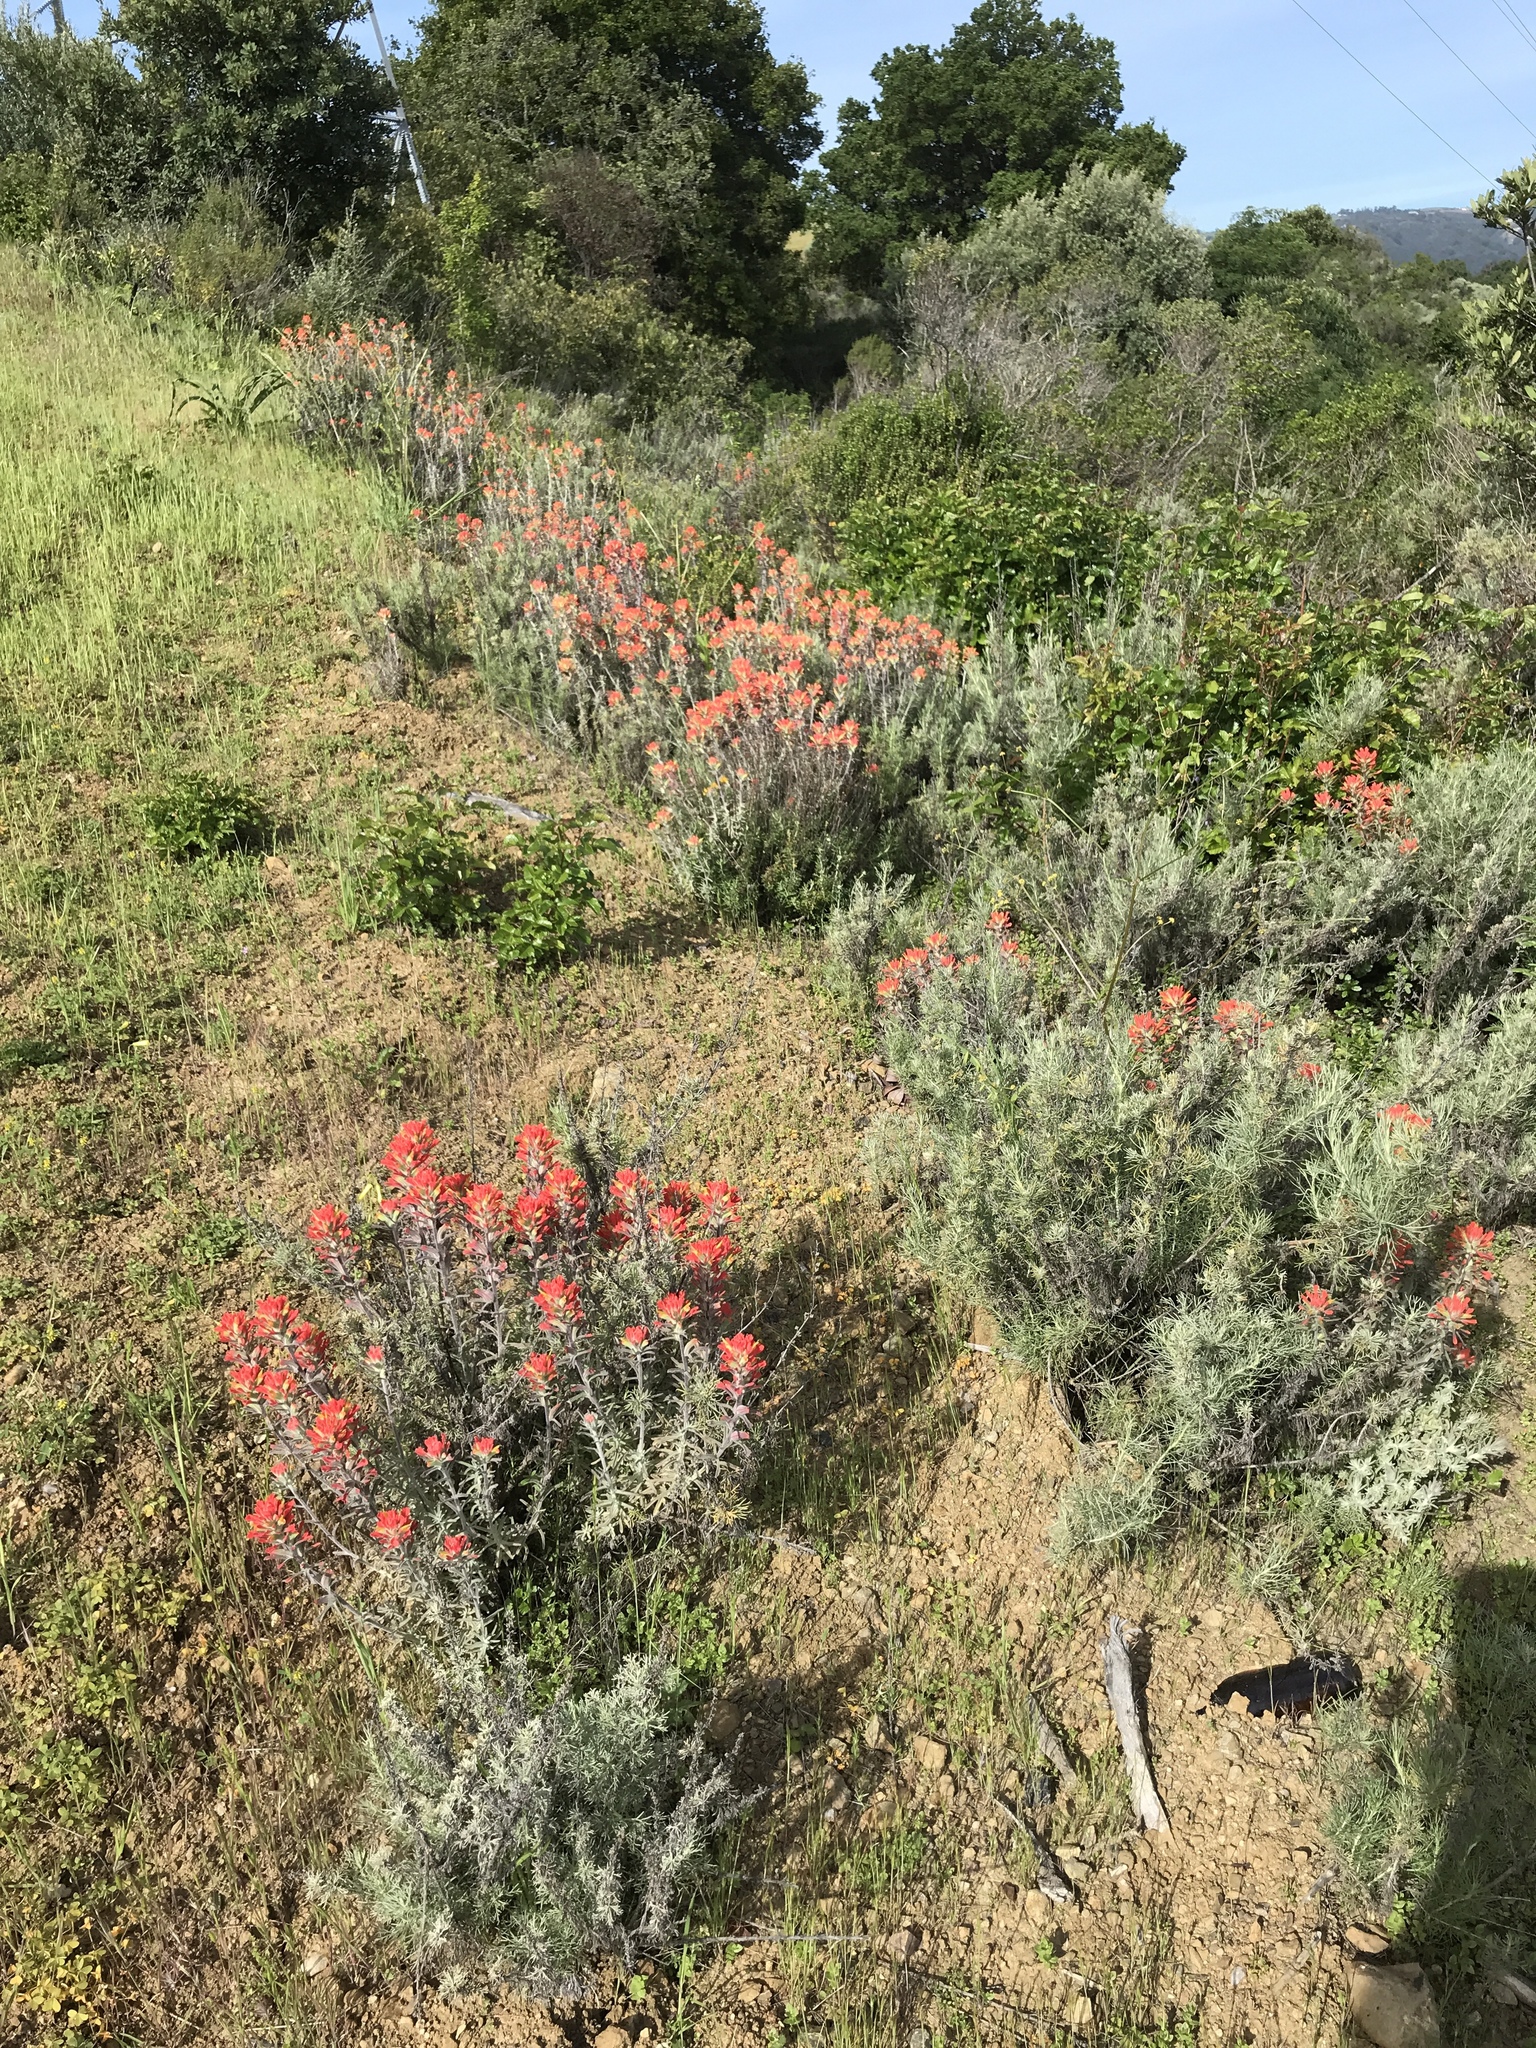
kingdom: Plantae
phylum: Tracheophyta
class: Magnoliopsida
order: Lamiales
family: Orobanchaceae
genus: Castilleja
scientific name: Castilleja foliolosa
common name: Woolly indian paintbrush
